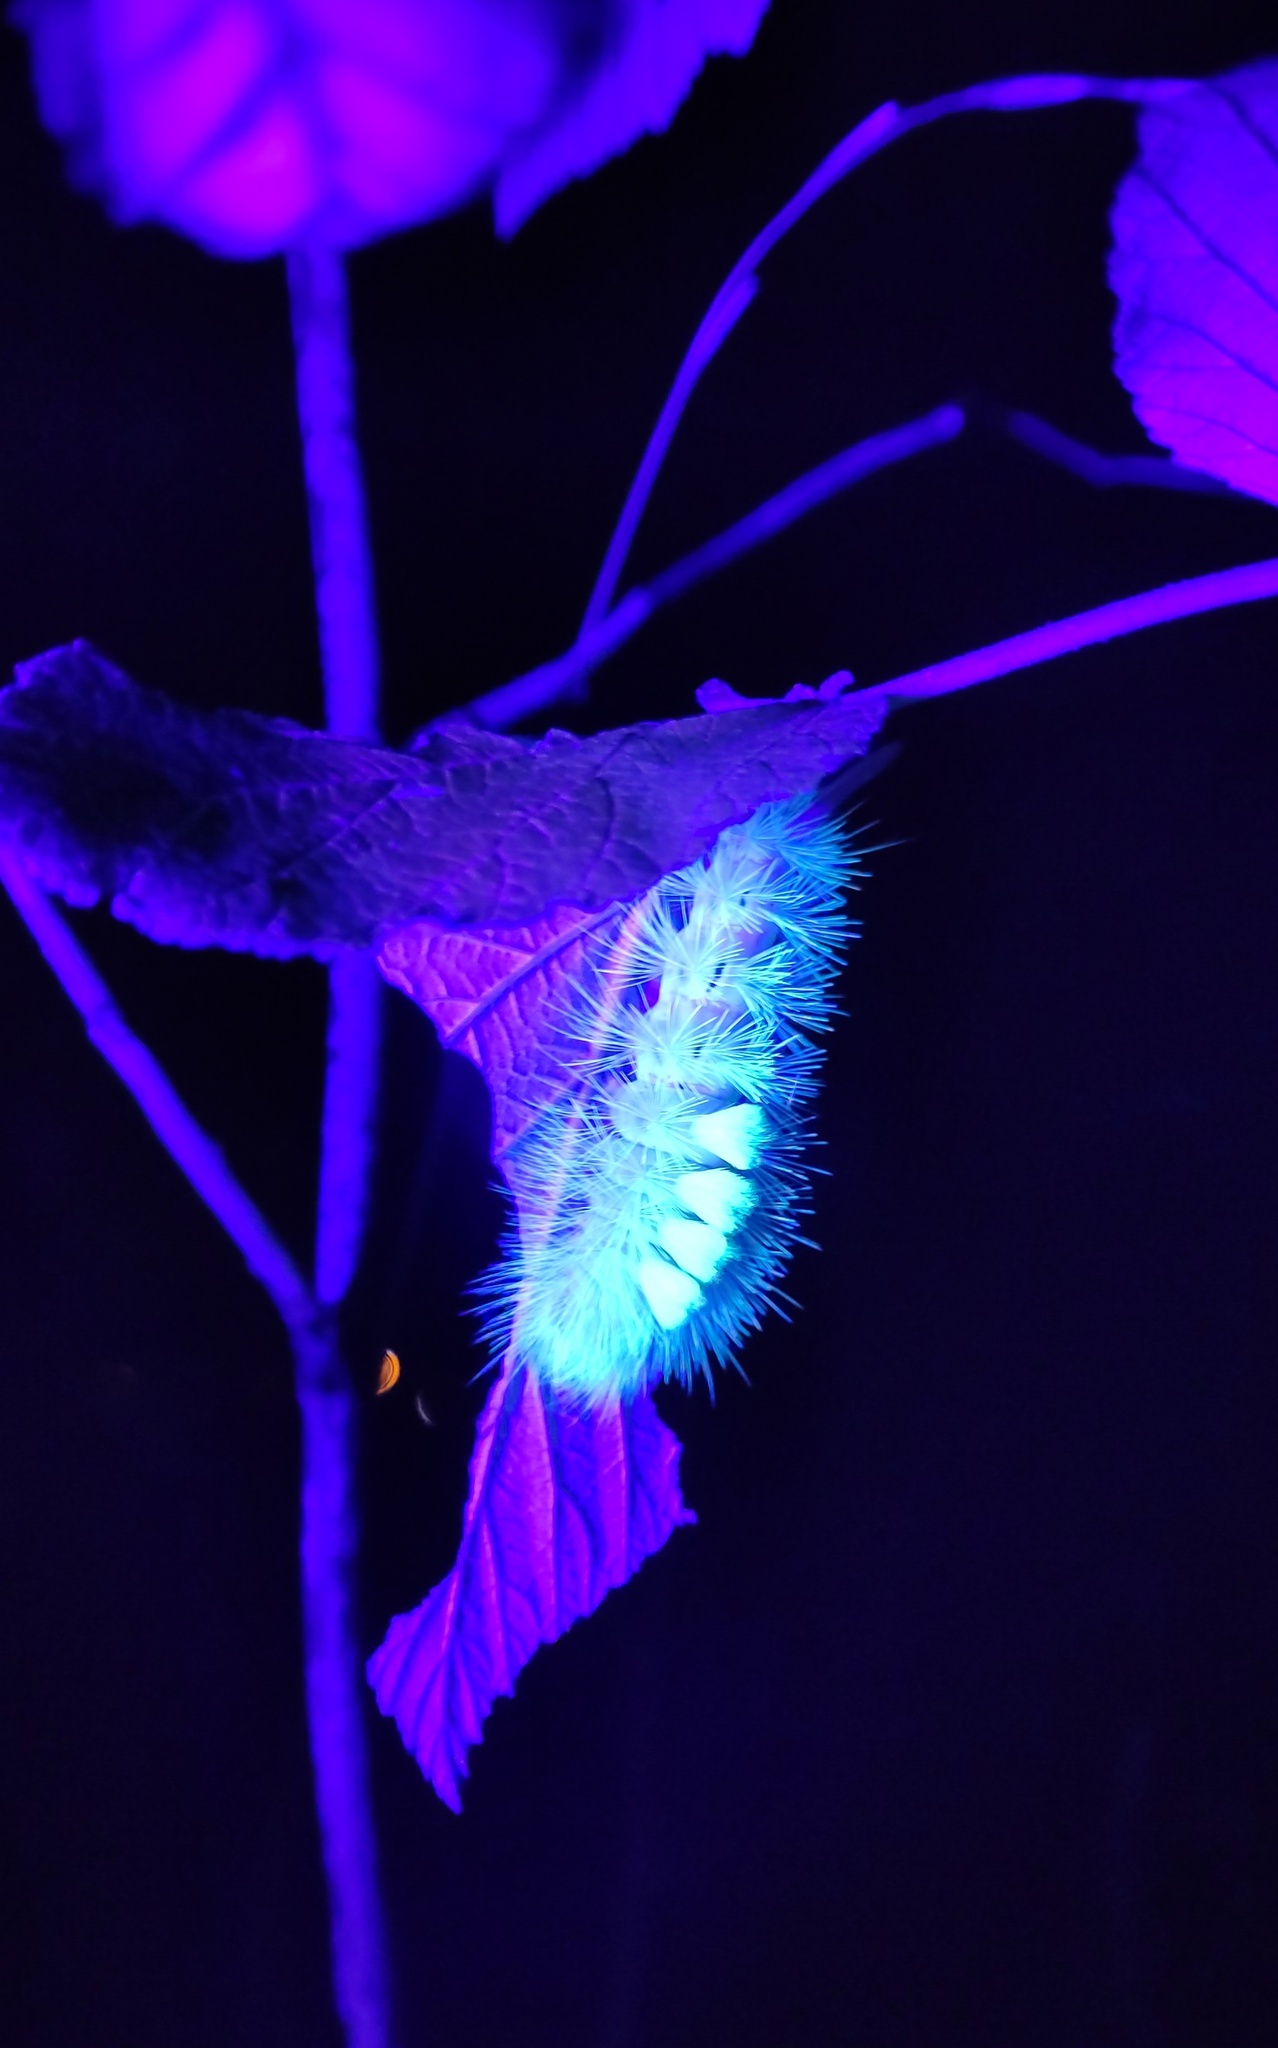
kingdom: Animalia
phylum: Arthropoda
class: Insecta
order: Lepidoptera
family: Erebidae
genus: Calliteara
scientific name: Calliteara pudibunda
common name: Pale tussock
